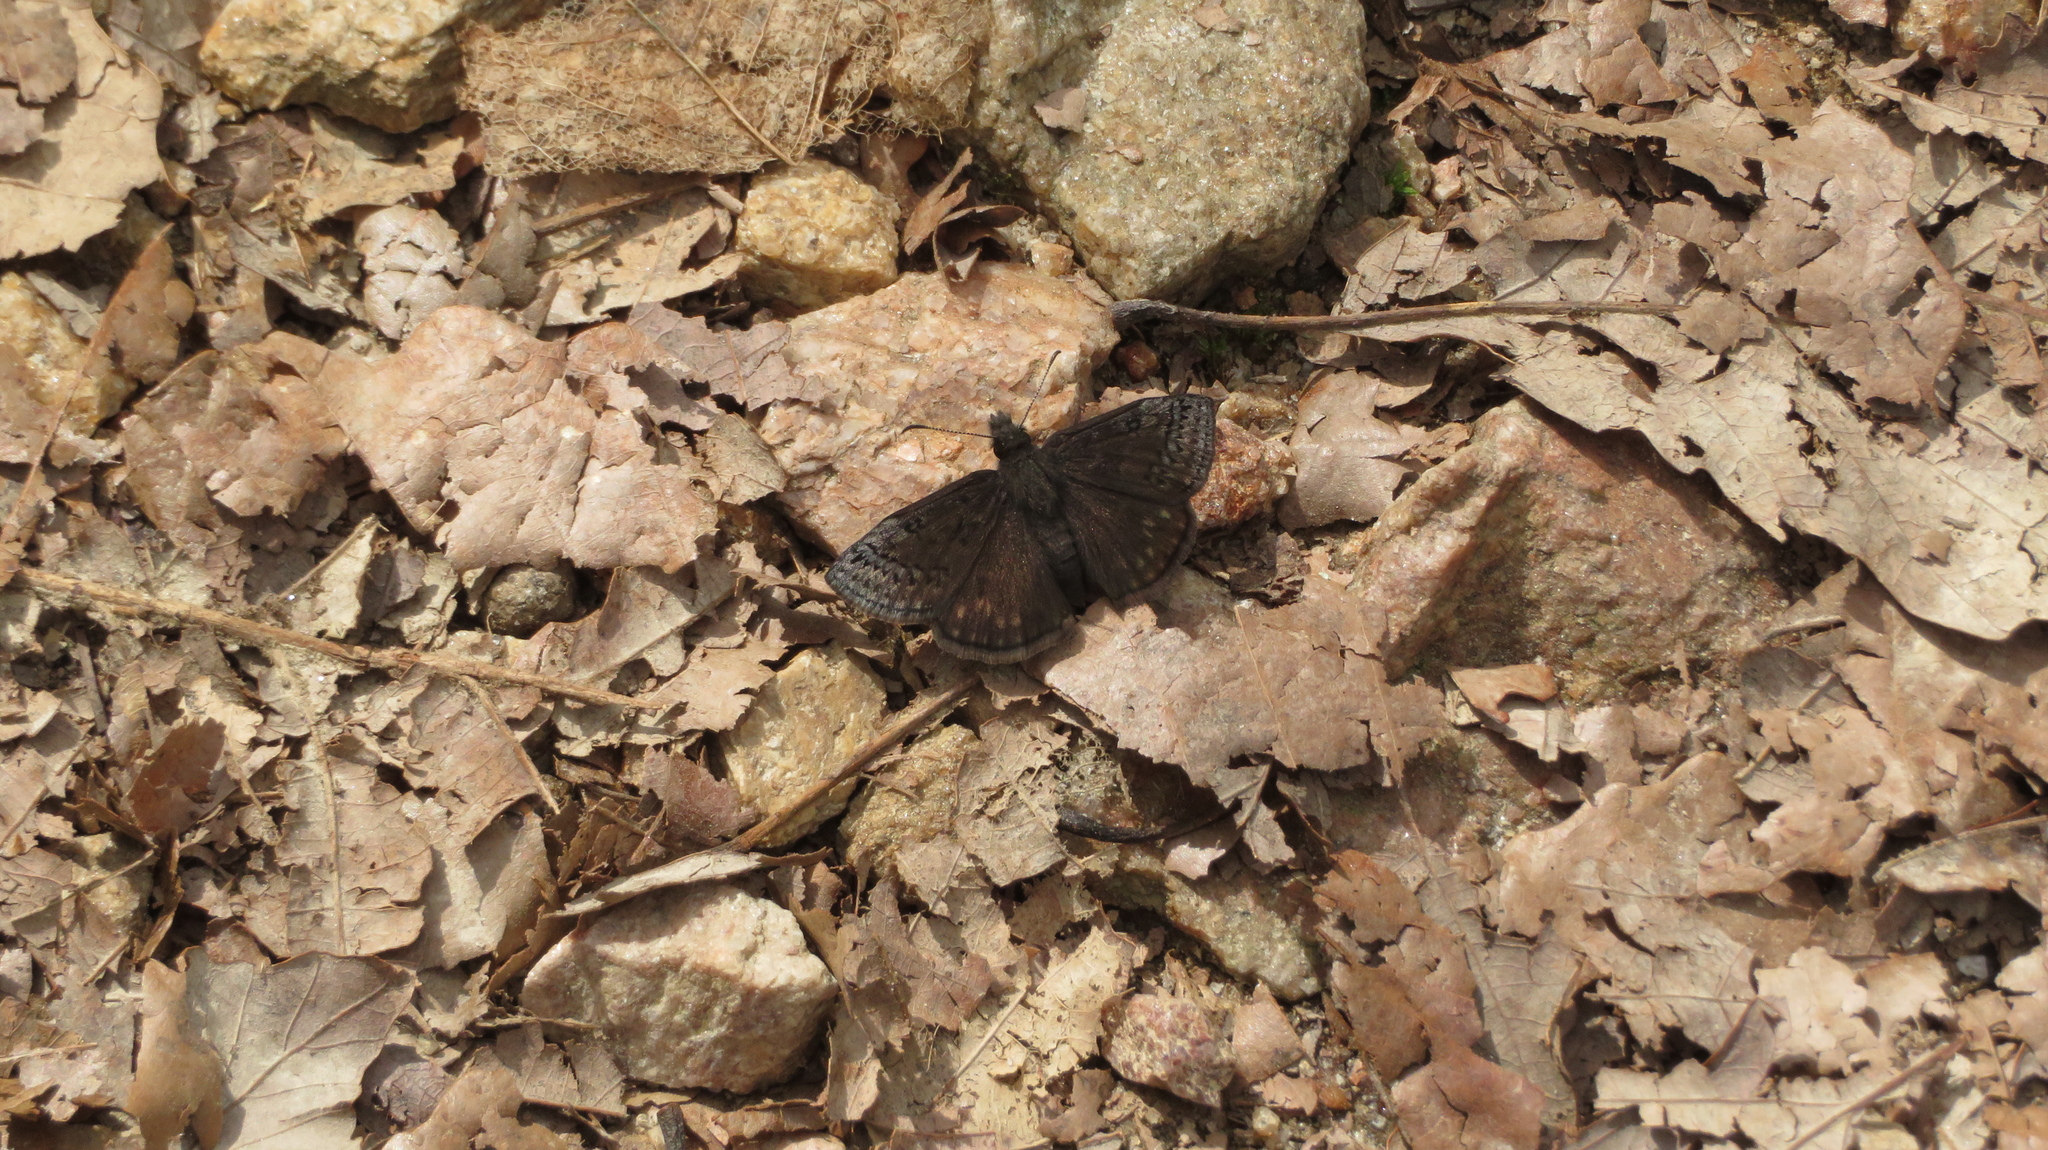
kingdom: Animalia
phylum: Arthropoda
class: Insecta
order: Lepidoptera
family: Hesperiidae
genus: Erynnis
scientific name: Erynnis brizo
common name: Sleepy duskywing
